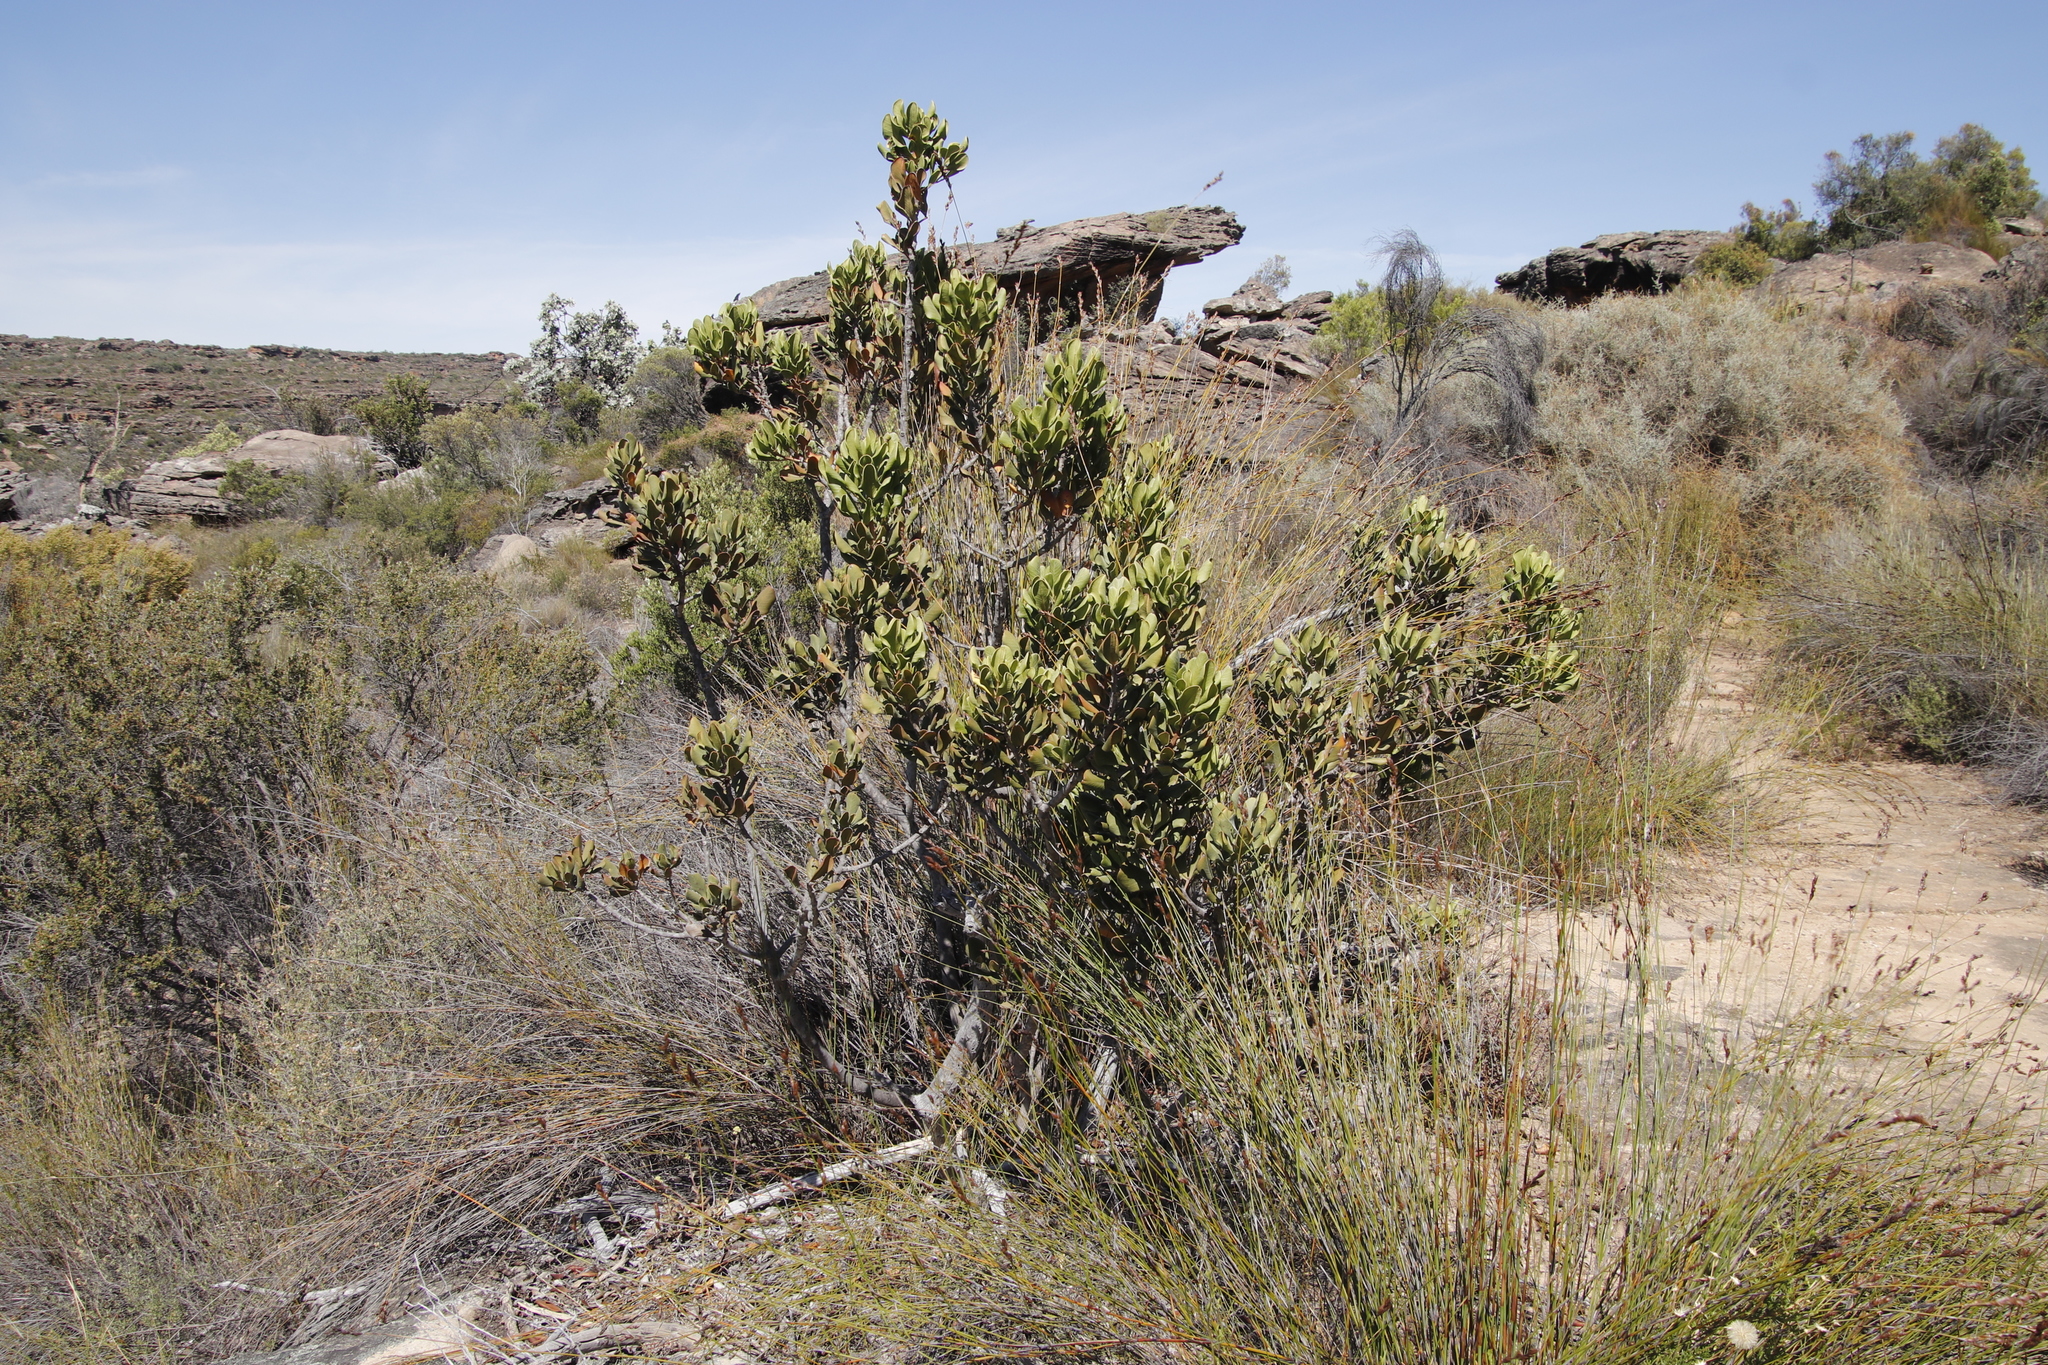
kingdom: Plantae
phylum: Tracheophyta
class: Magnoliopsida
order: Sapindales
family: Anacardiaceae
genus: Searsia
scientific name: Searsia scytophylla
